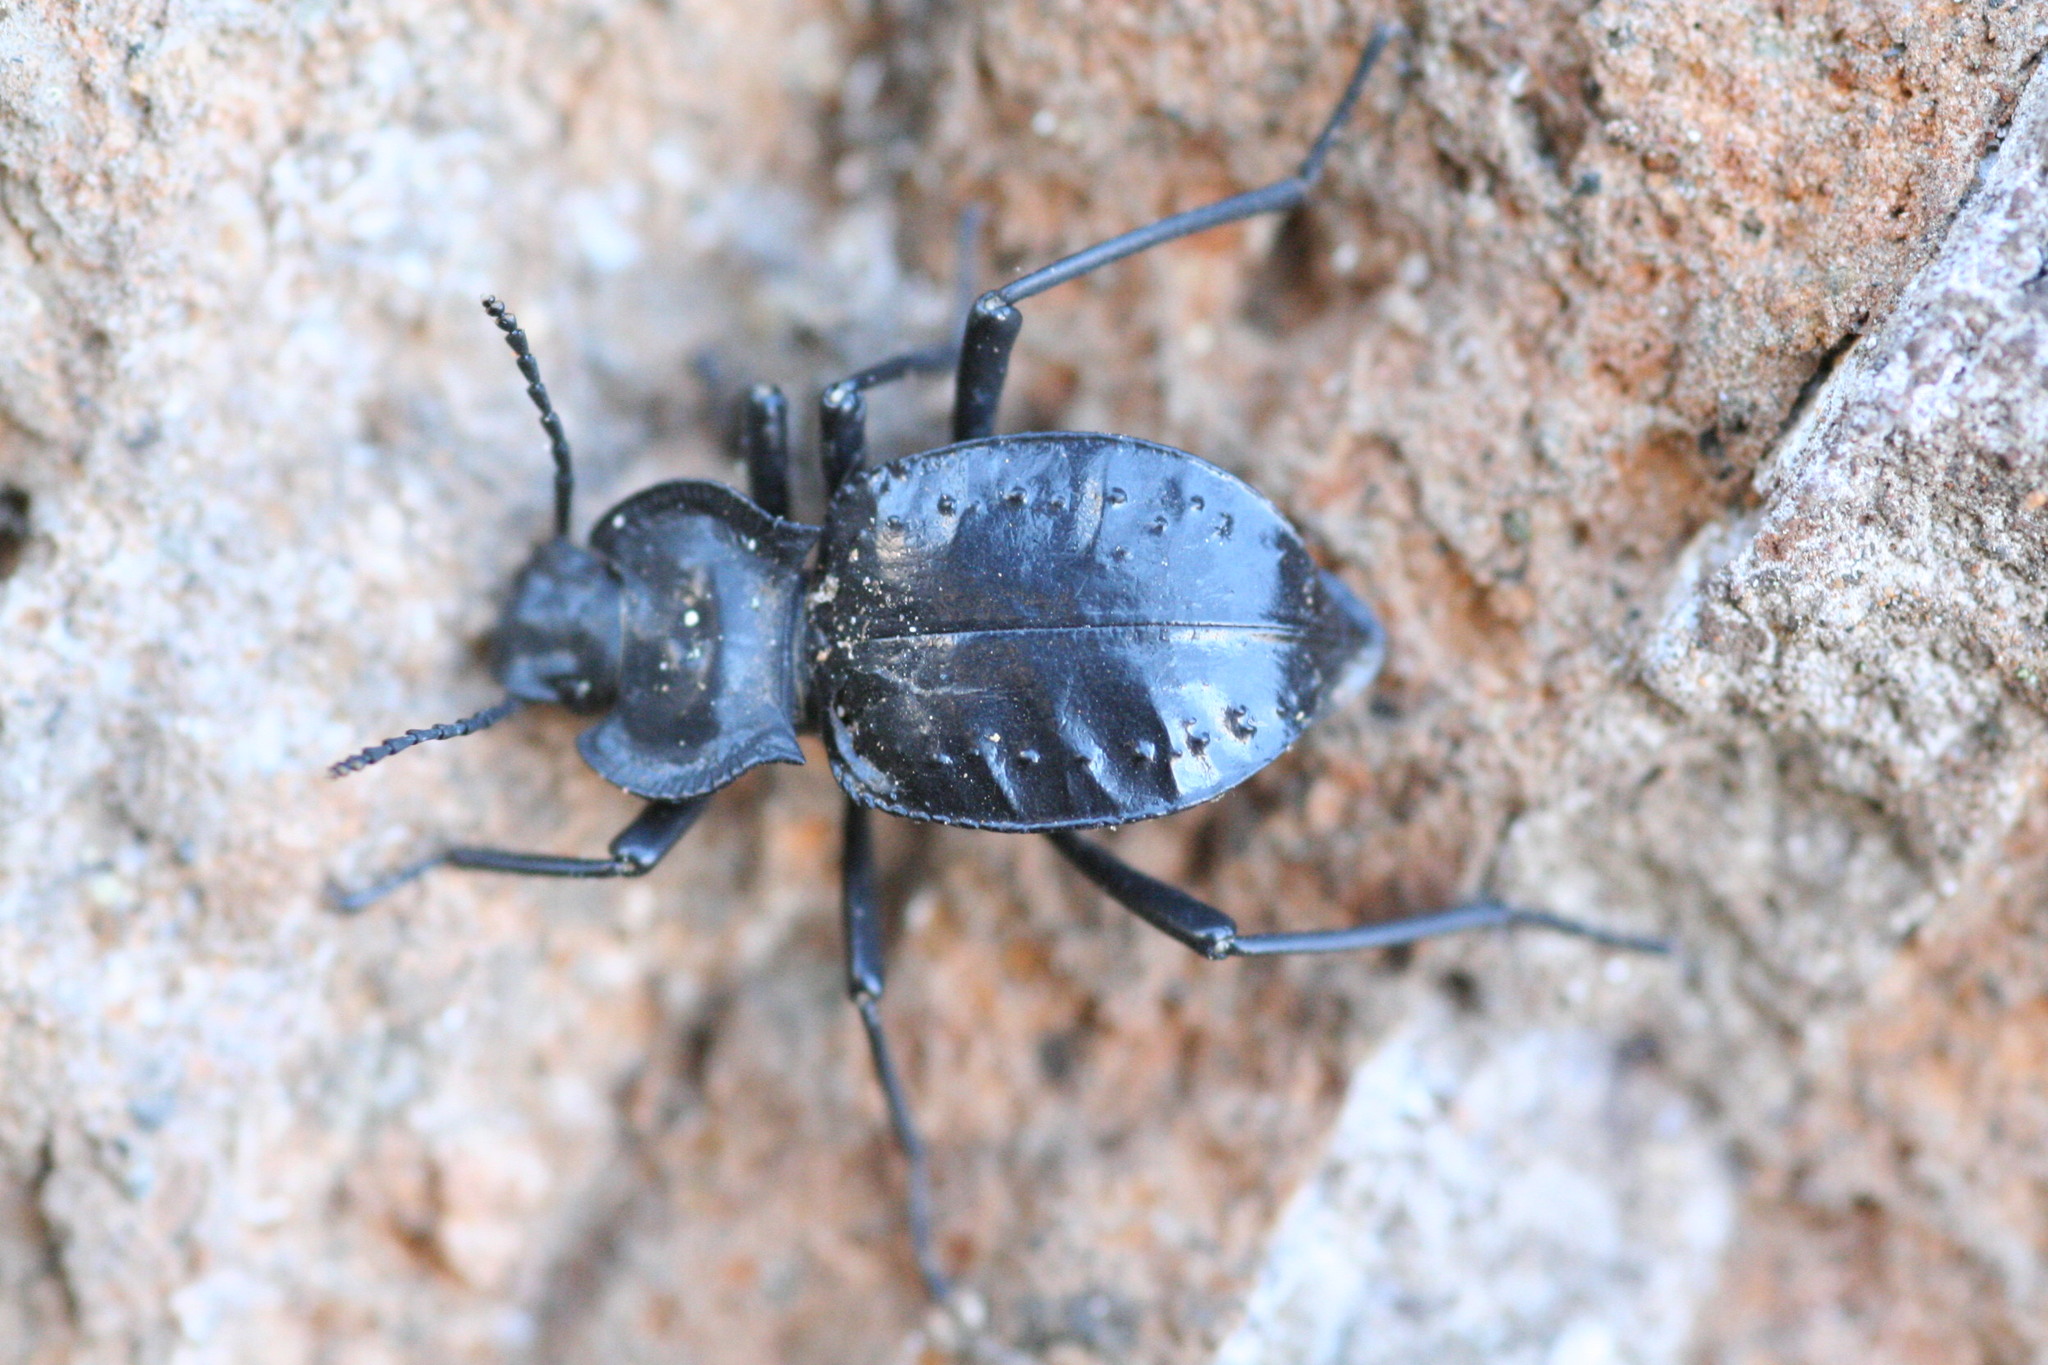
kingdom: Animalia
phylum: Arthropoda
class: Insecta
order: Coleoptera
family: Tenebrionidae
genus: Akis
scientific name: Akis bacarozzo
